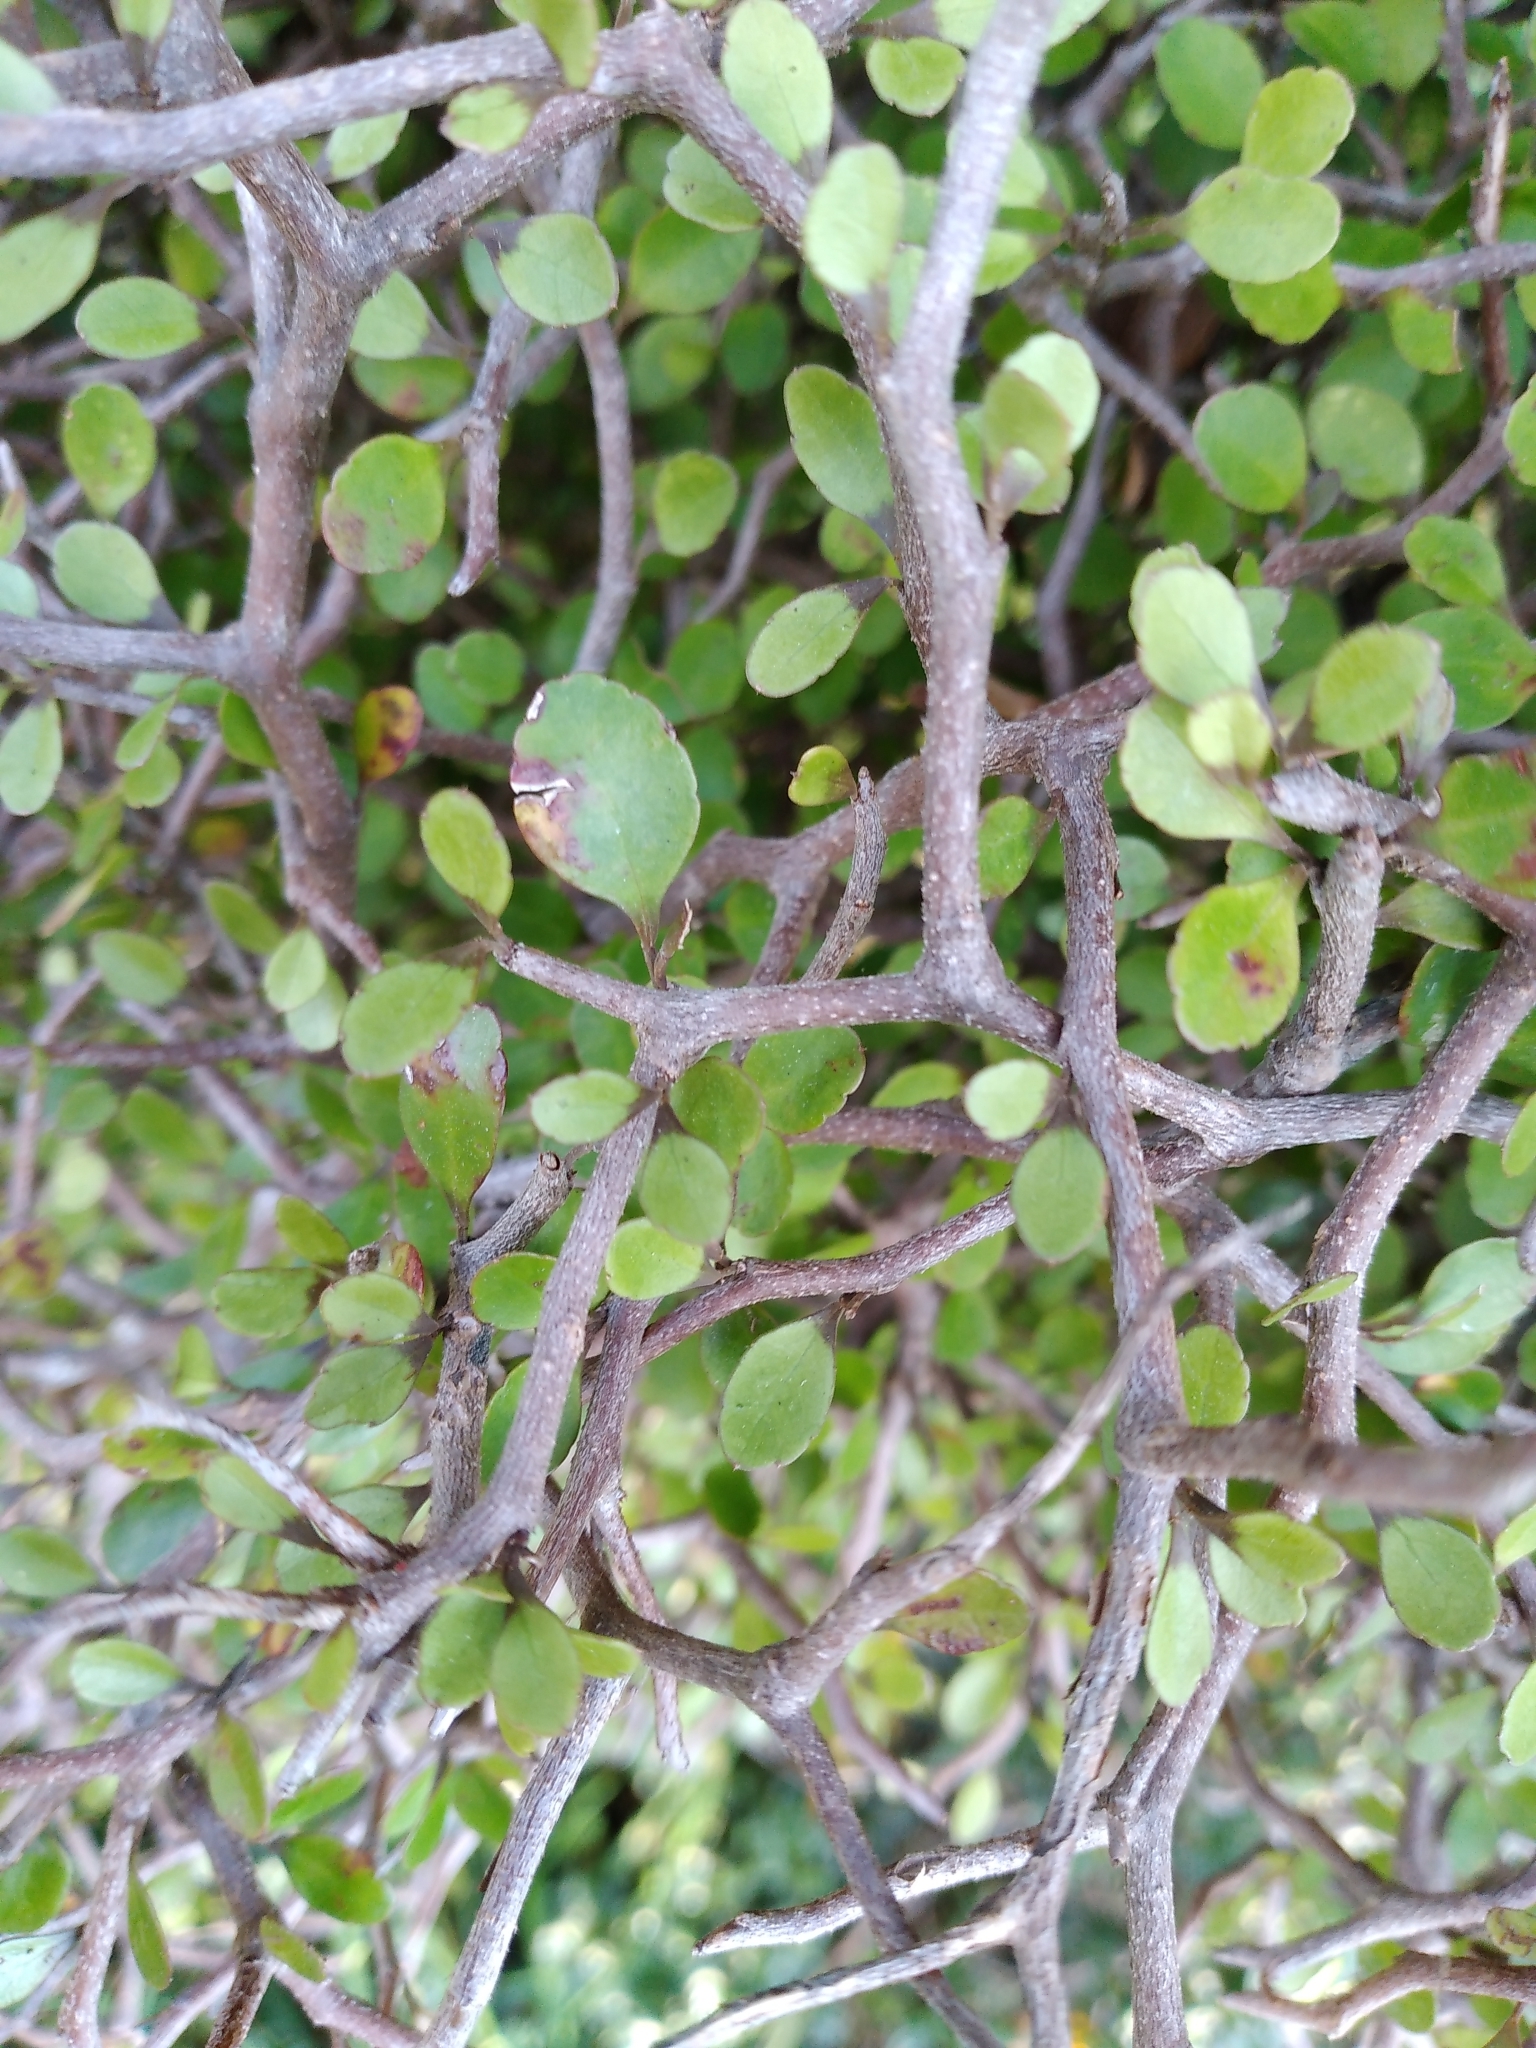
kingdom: Plantae
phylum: Tracheophyta
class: Magnoliopsida
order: Apiales
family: Araliaceae
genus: Raukaua
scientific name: Raukaua anomalus
